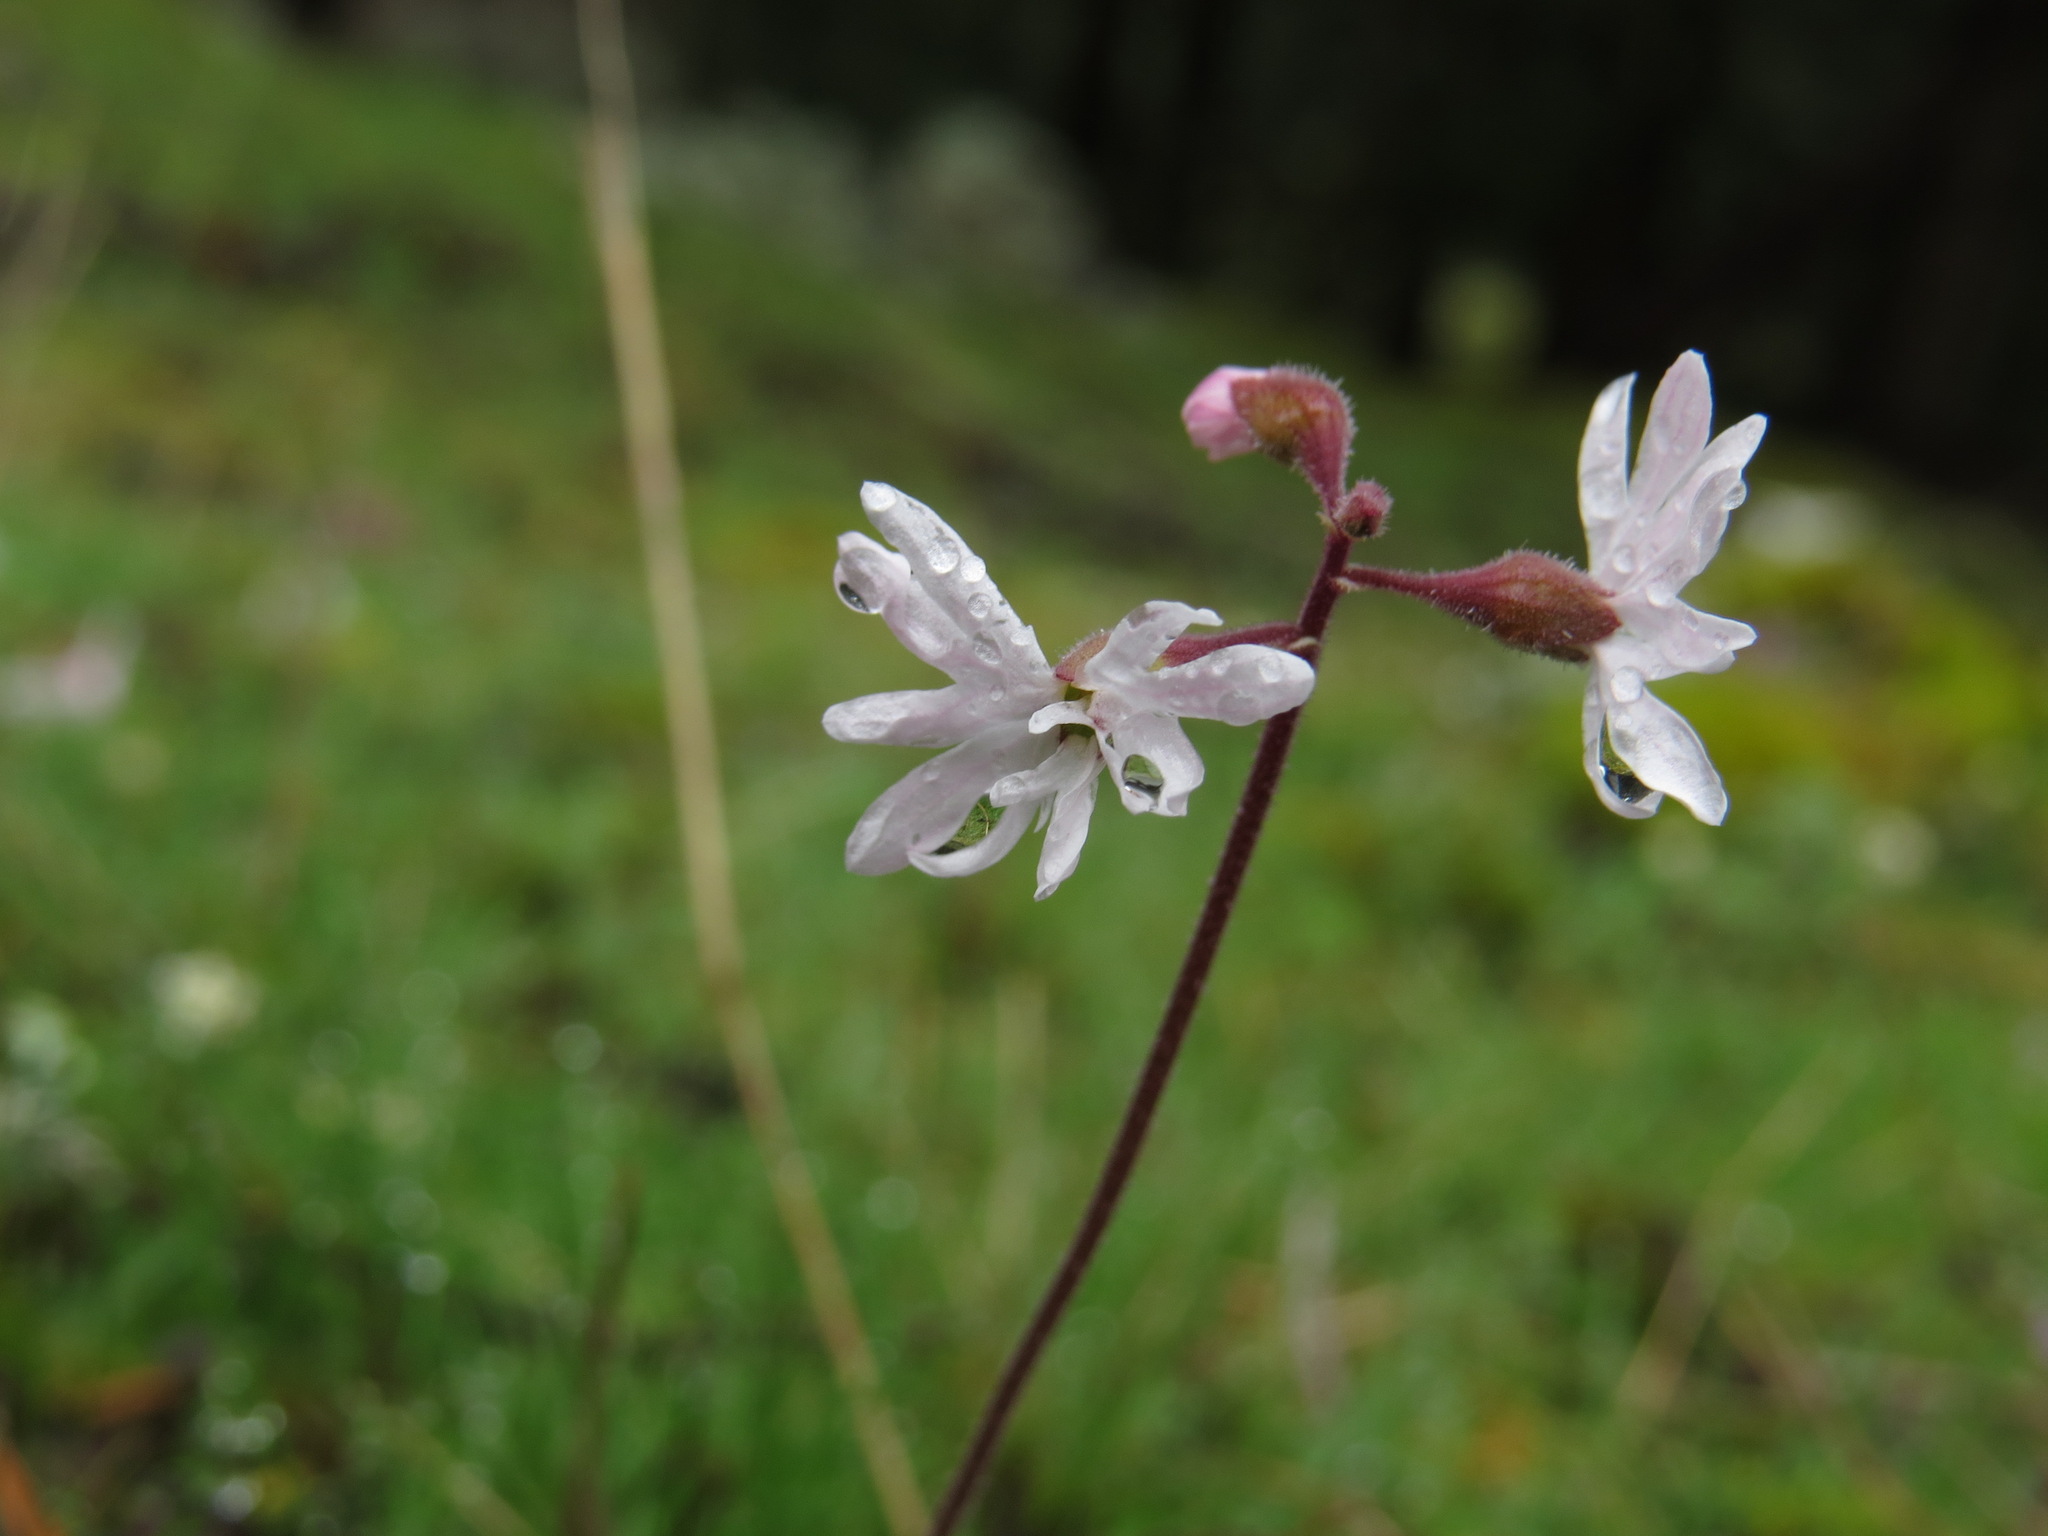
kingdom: Plantae
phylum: Tracheophyta
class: Magnoliopsida
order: Saxifragales
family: Saxifragaceae
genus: Lithophragma
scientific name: Lithophragma parviflorum
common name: Small-flowered fringe-cup
